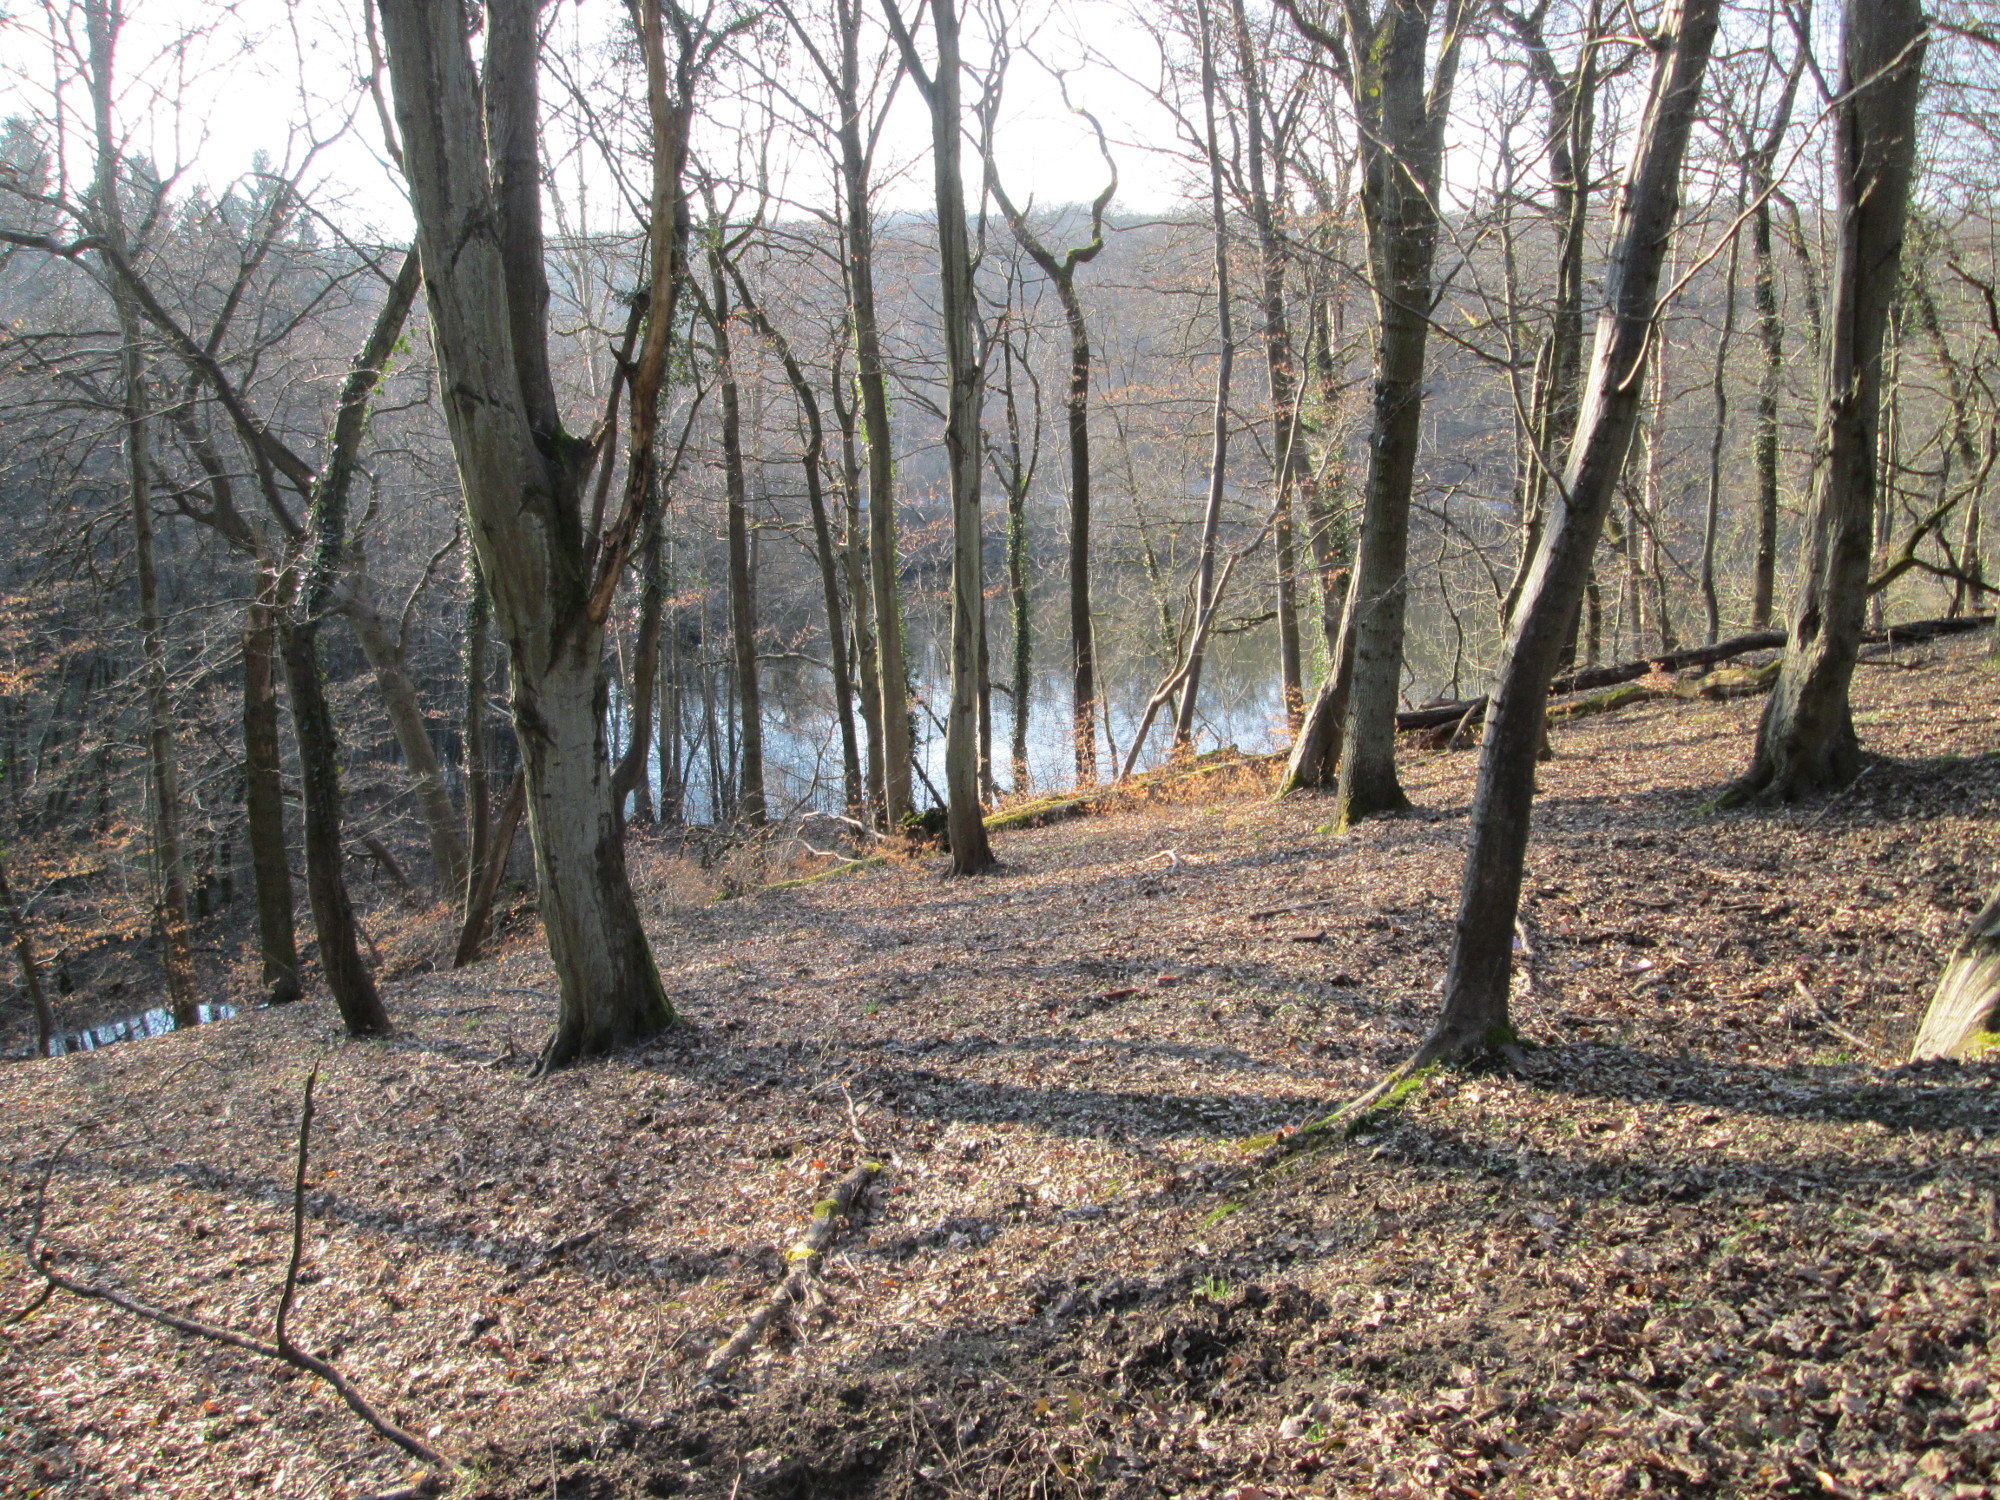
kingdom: Plantae
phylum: Tracheophyta
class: Magnoliopsida
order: Fagales
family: Fagaceae
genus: Fagus
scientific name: Fagus sylvatica
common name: Beech
